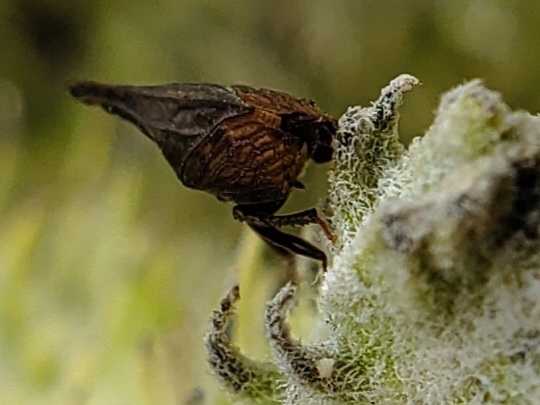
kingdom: Animalia
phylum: Arthropoda
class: Insecta
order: Hemiptera
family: Membracidae
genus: Enchenopa
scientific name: Enchenopa latipes
